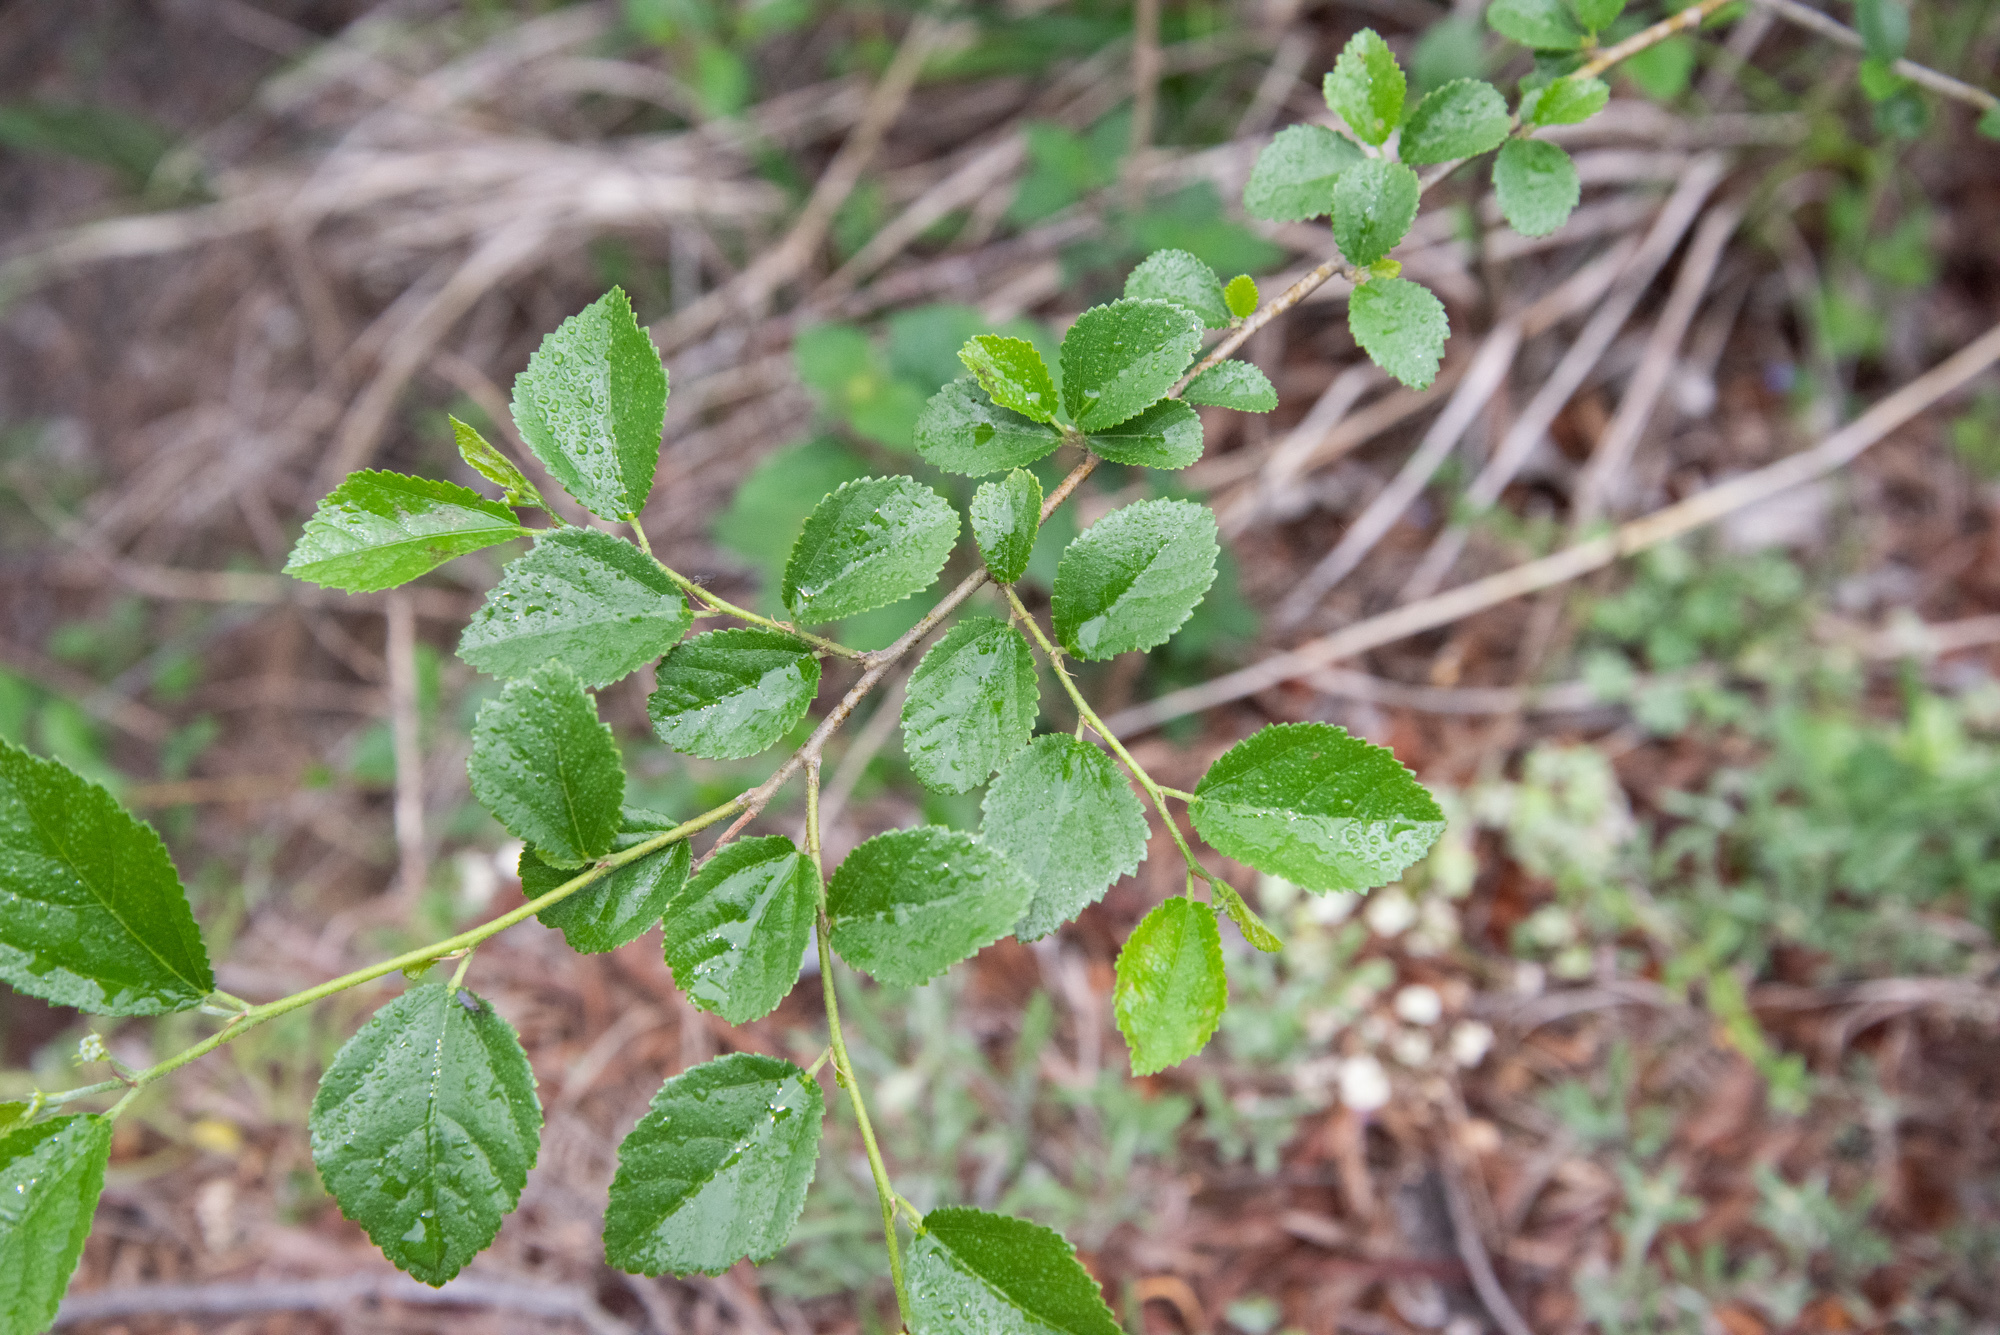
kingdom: Plantae
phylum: Tracheophyta
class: Magnoliopsida
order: Malvales
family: Malvaceae
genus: Grewia
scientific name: Grewia rhombifolia
